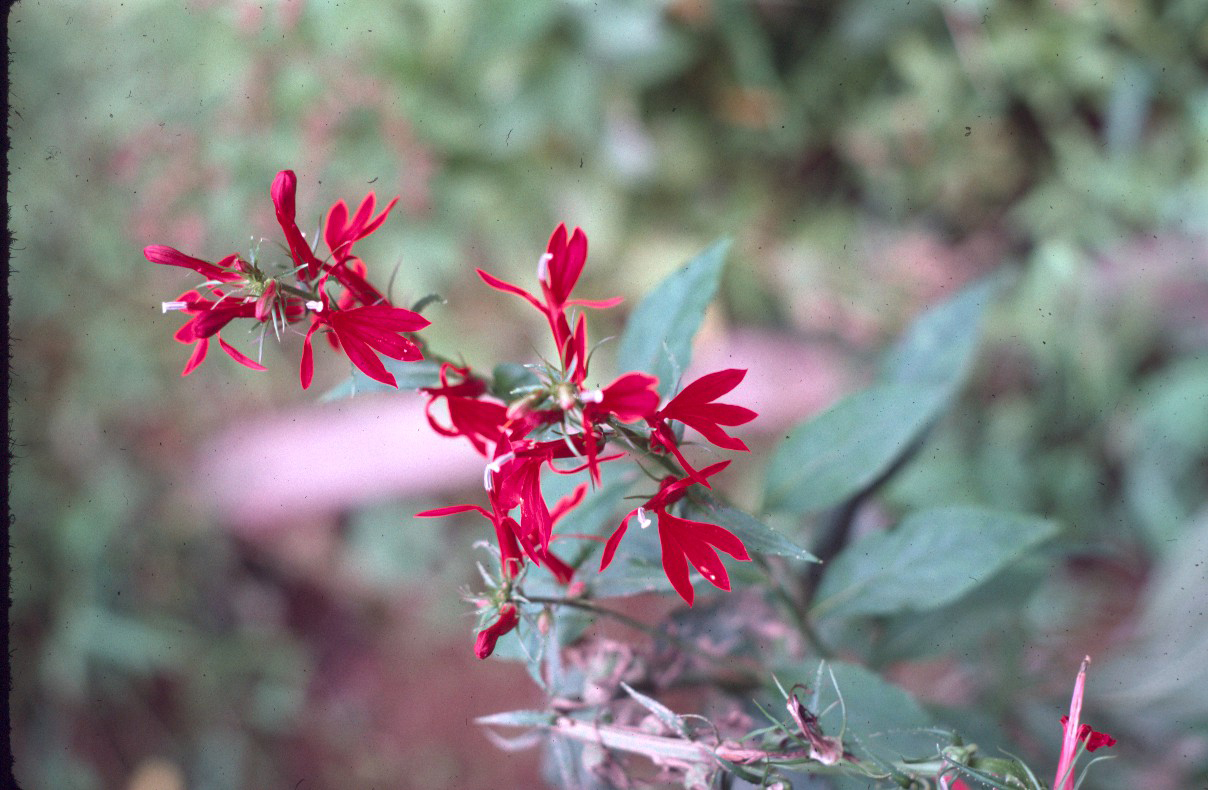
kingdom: Plantae
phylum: Tracheophyta
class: Magnoliopsida
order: Asterales
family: Campanulaceae
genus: Lobelia
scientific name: Lobelia cardinalis
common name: Cardinal flower
